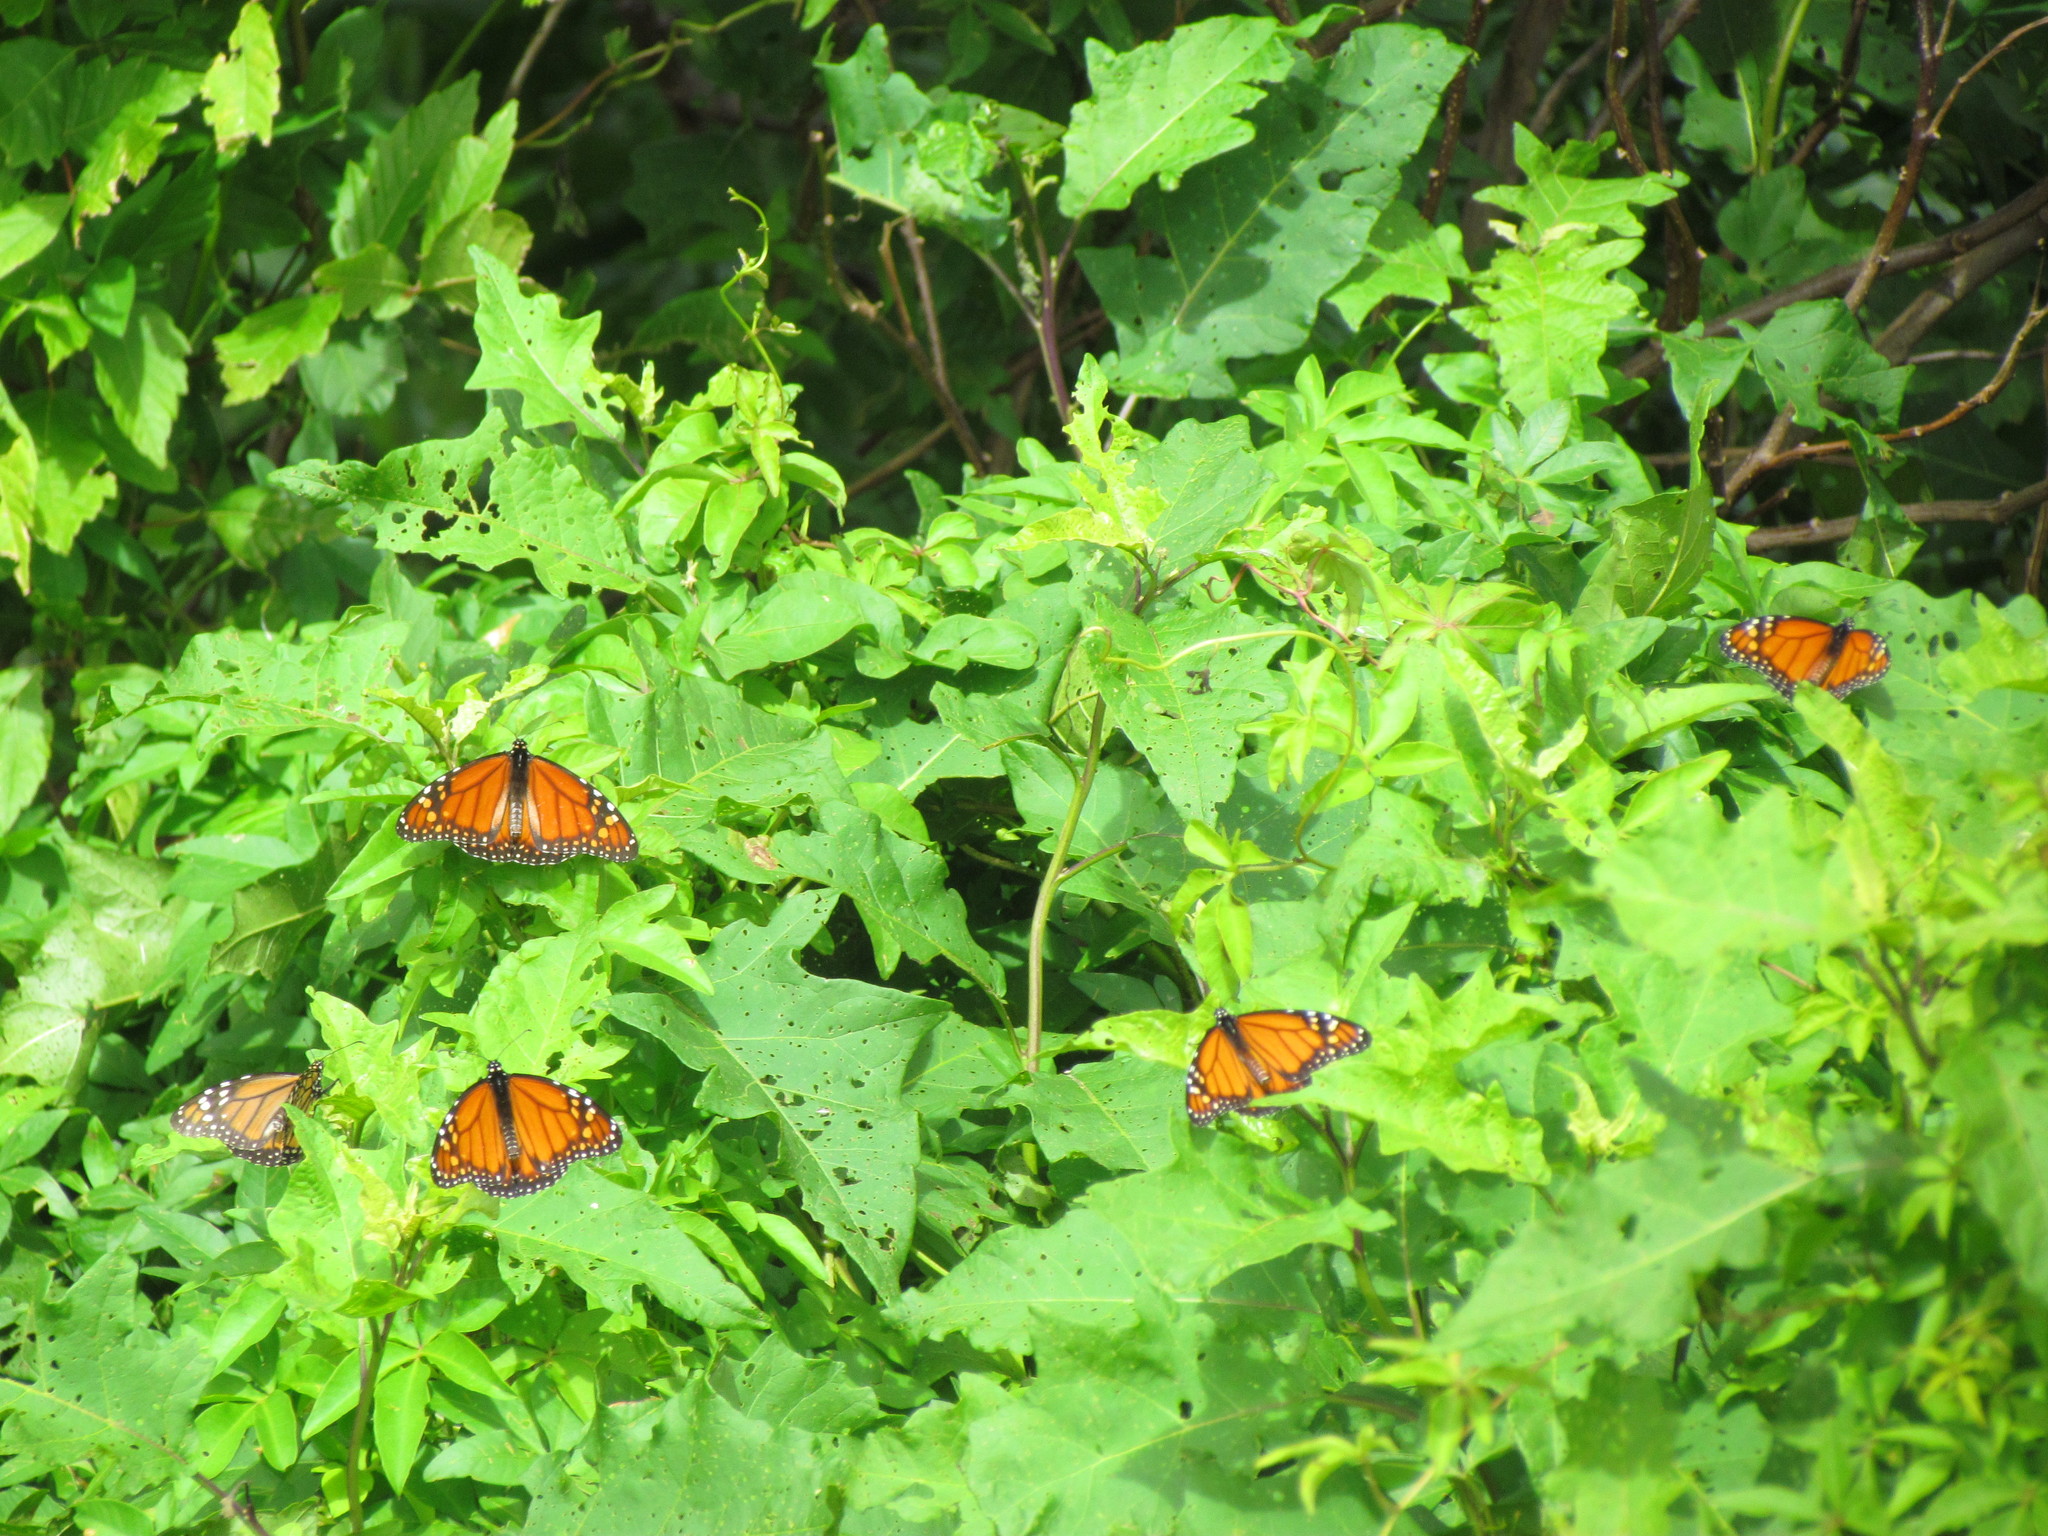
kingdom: Animalia
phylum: Arthropoda
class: Insecta
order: Lepidoptera
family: Nymphalidae
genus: Danaus
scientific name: Danaus erippus
